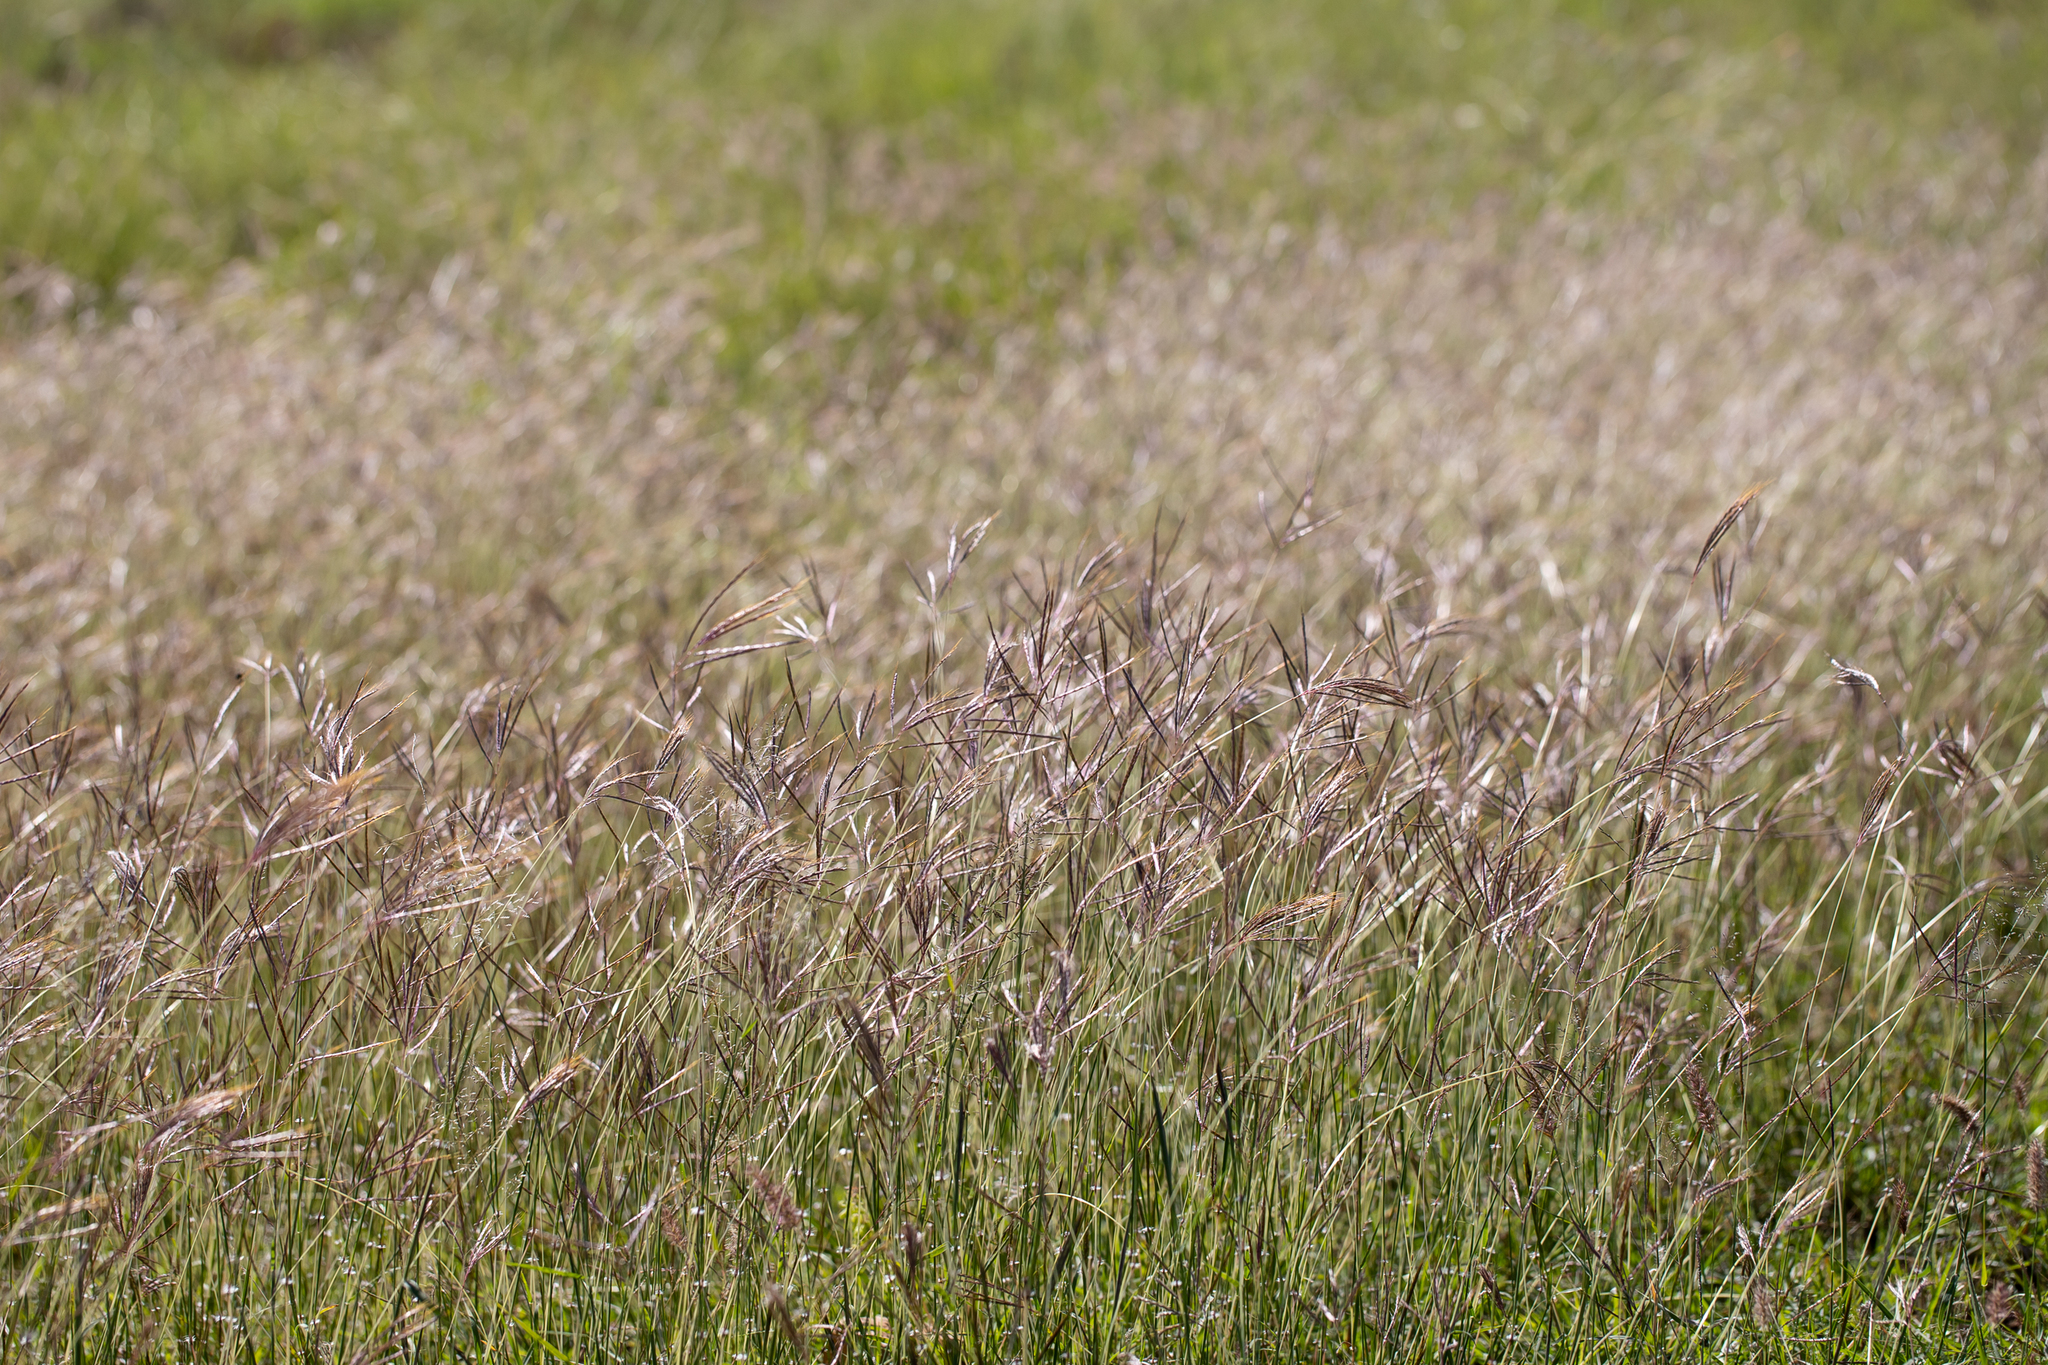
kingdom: Plantae
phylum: Tracheophyta
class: Liliopsida
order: Poales
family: Poaceae
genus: Bothriochloa
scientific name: Bothriochloa pertusa
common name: Pitted beardgrass
